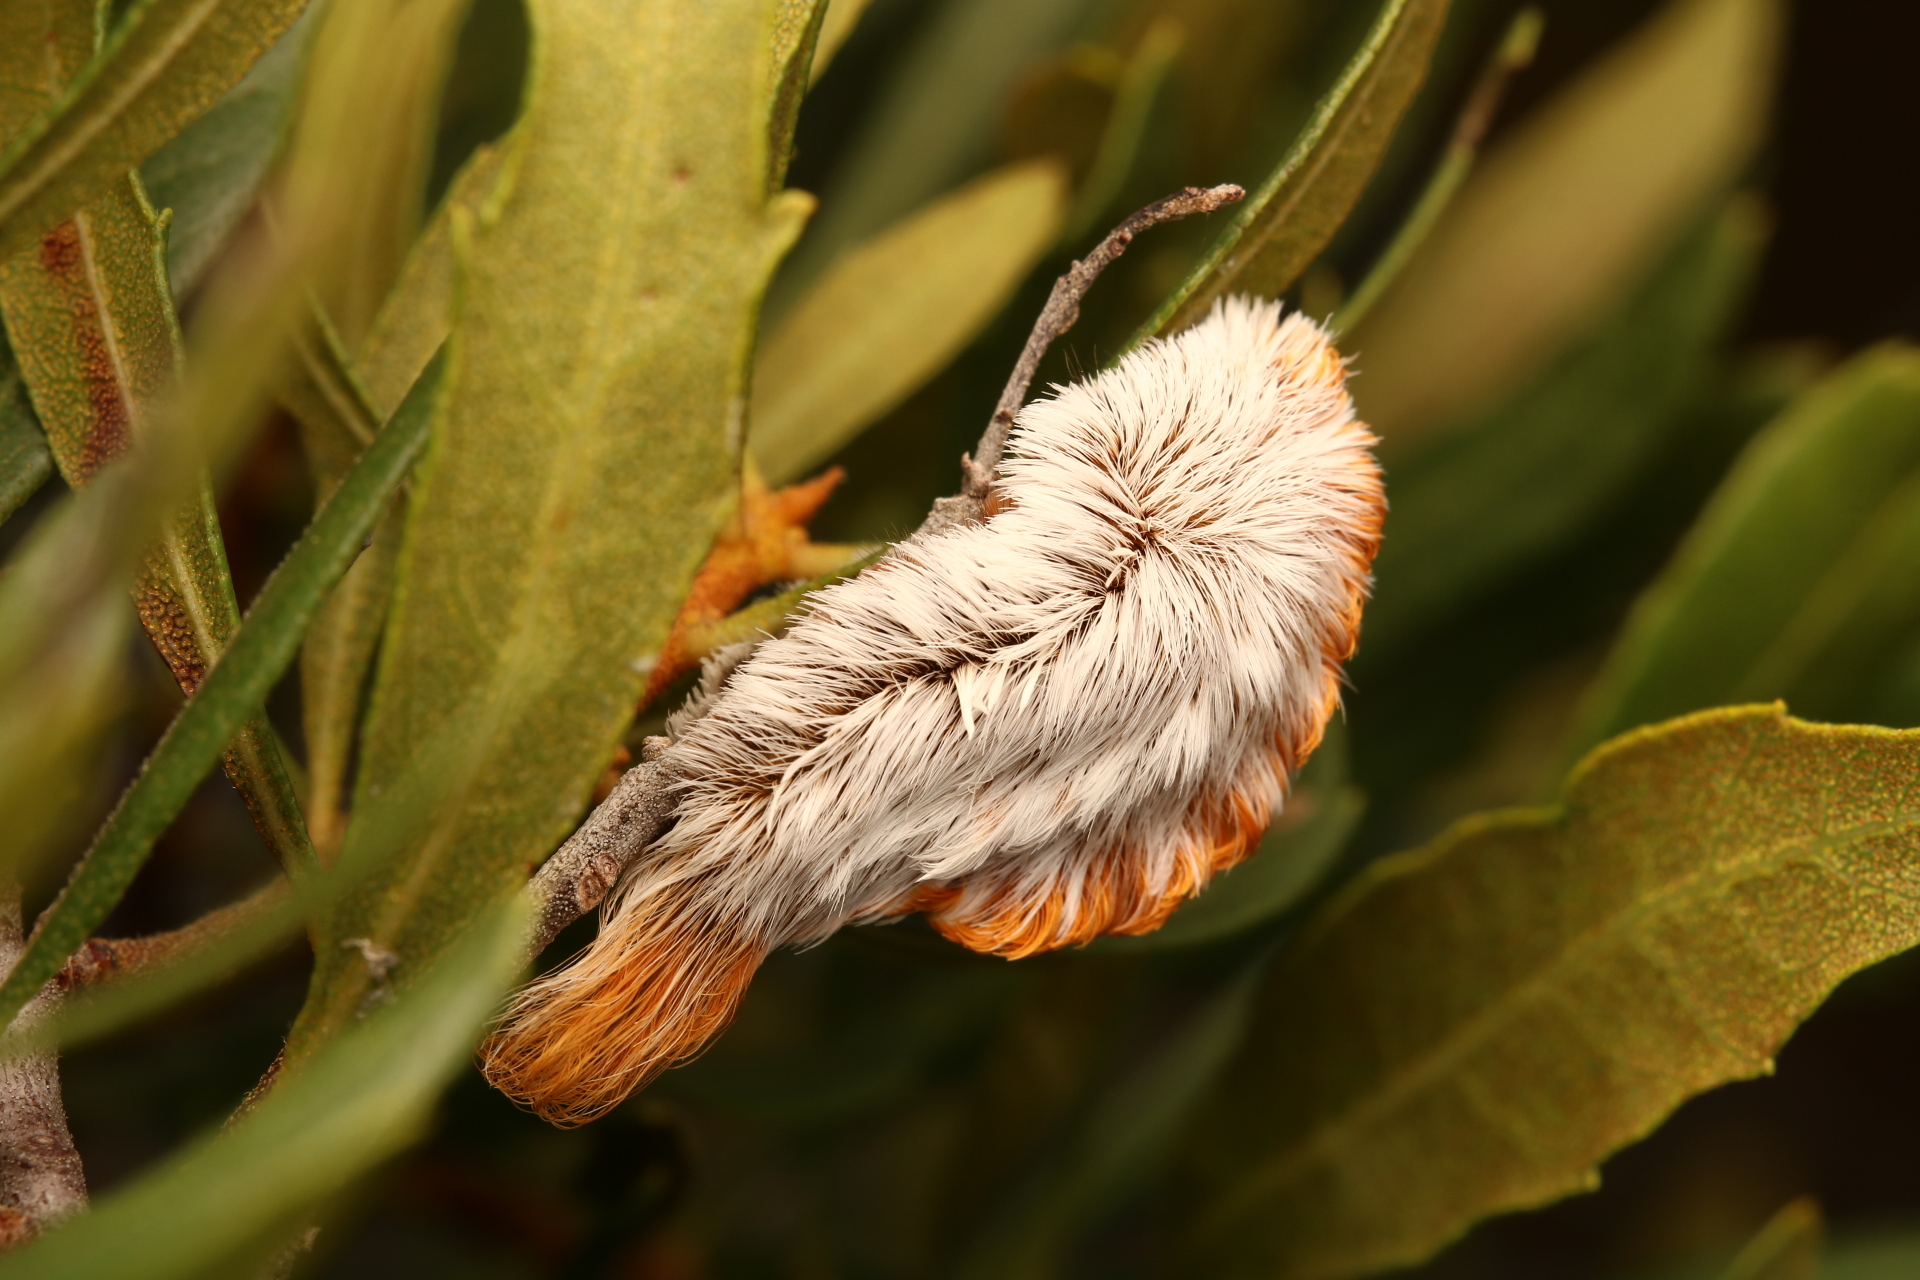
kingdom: Animalia
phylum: Arthropoda
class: Insecta
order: Lepidoptera
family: Megalopygidae
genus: Megalopyge
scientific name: Megalopyge opercularis
